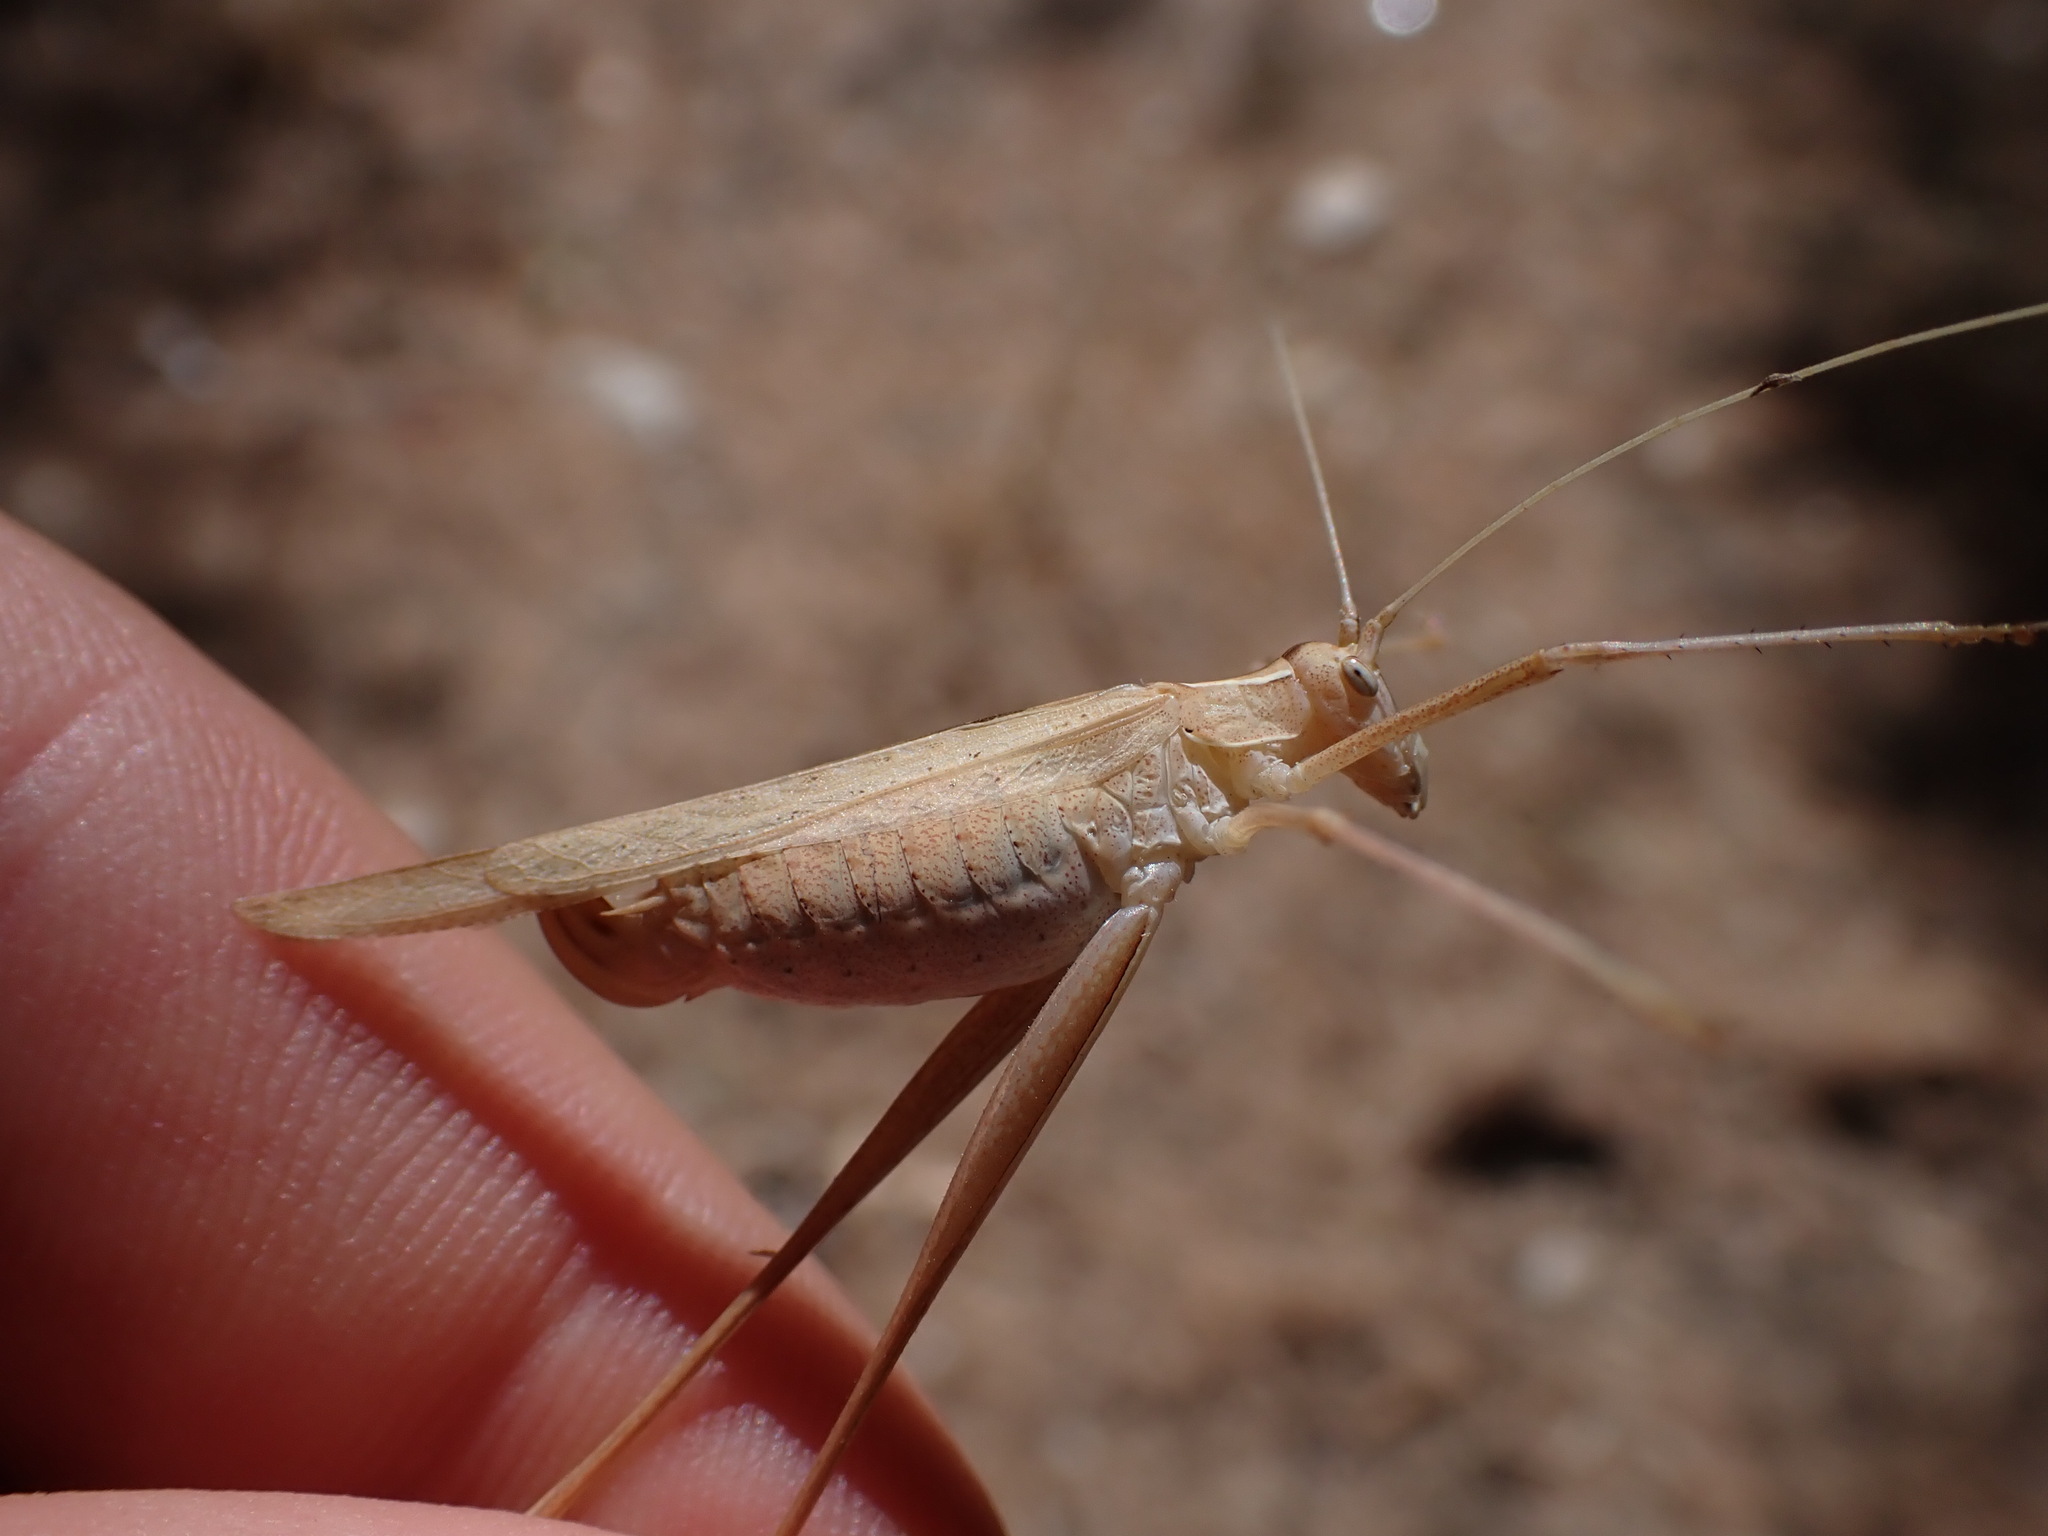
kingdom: Animalia
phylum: Arthropoda
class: Insecta
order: Orthoptera
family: Tettigoniidae
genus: Tylopsis
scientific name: Tylopsis lilifolia
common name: Lily bush-cricket
